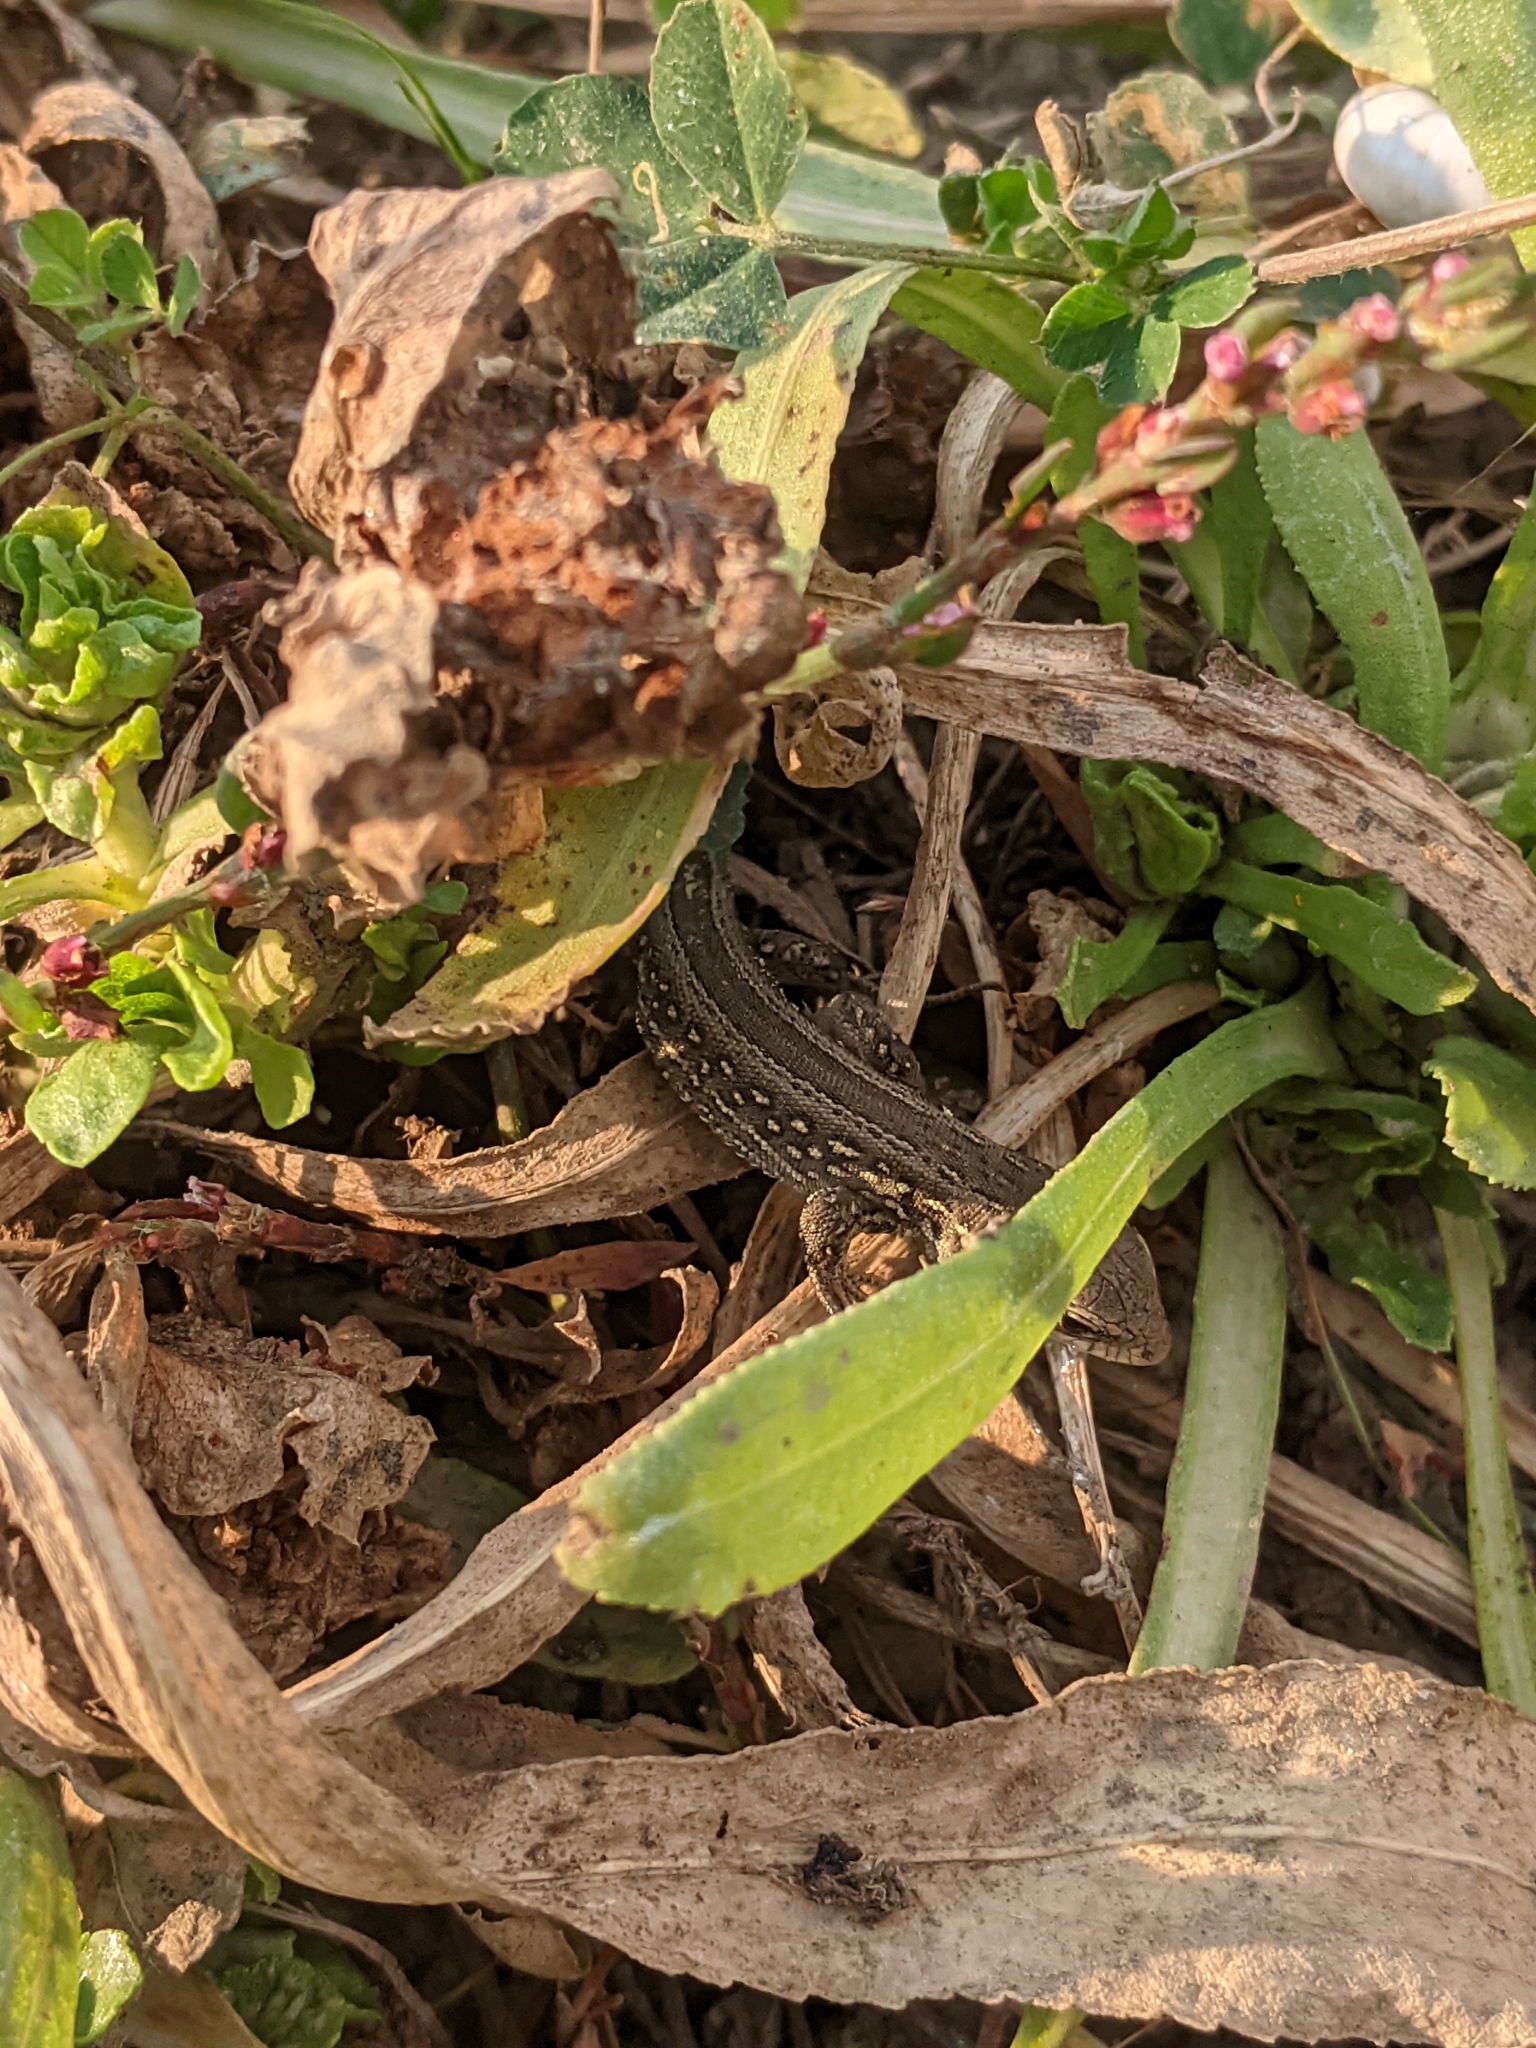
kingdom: Animalia
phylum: Chordata
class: Squamata
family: Lacertidae
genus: Lacerta
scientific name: Lacerta agilis
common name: Sand lizard
